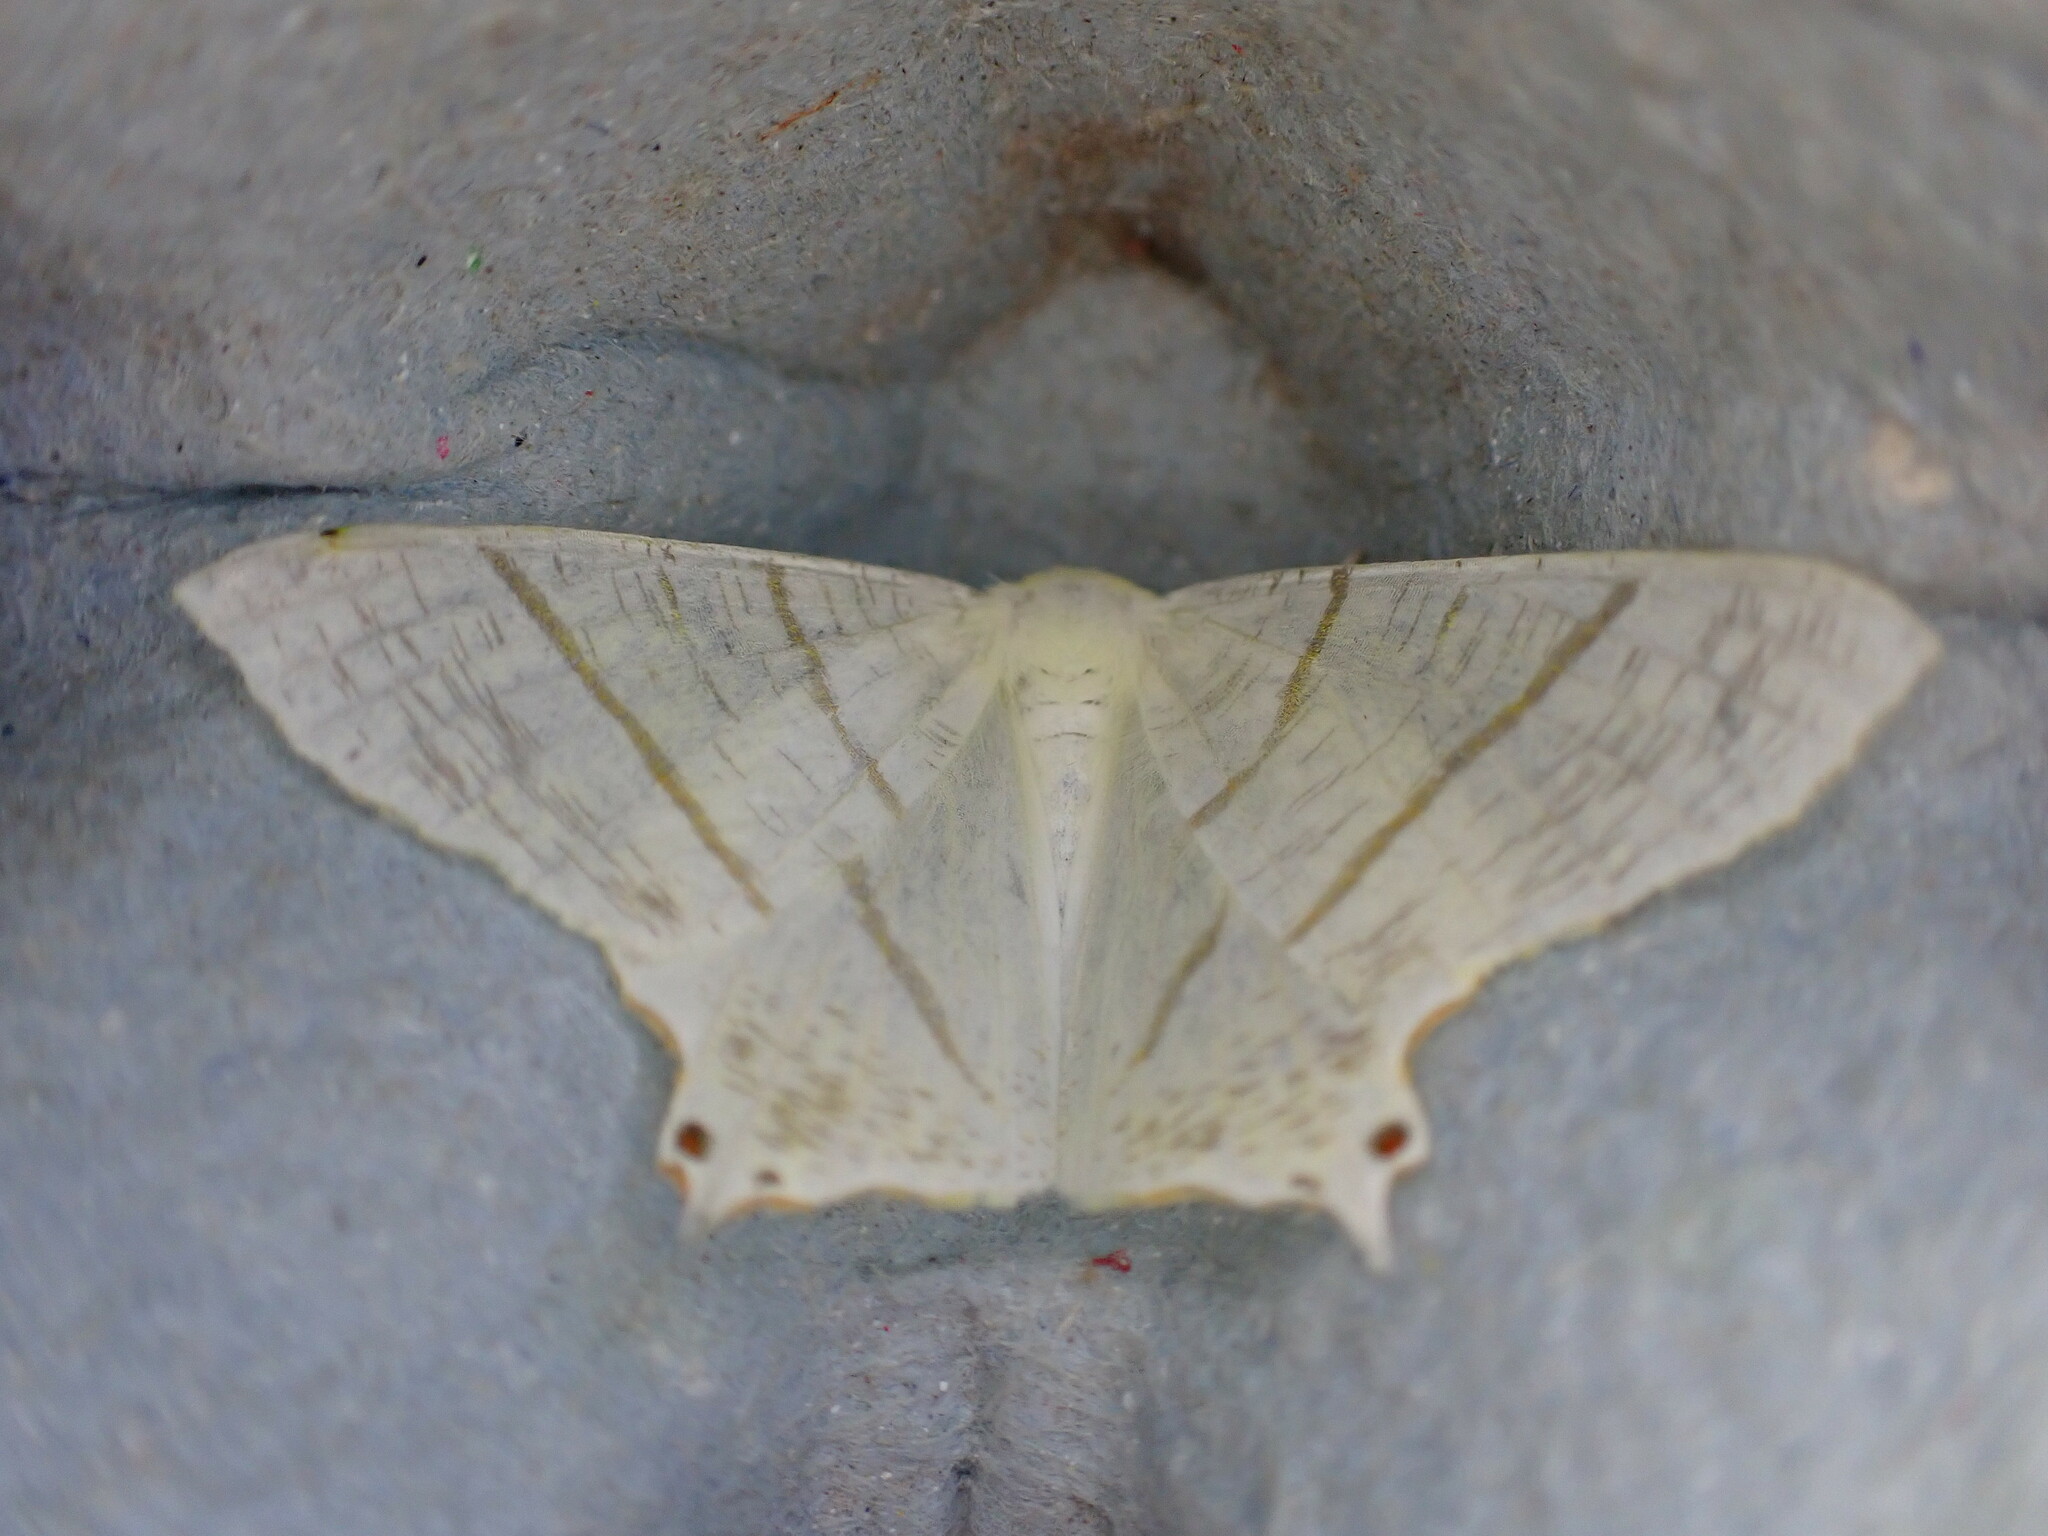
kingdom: Animalia
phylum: Arthropoda
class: Insecta
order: Lepidoptera
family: Geometridae
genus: Ourapteryx
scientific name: Ourapteryx sambucaria
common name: Swallow-tailed moth
